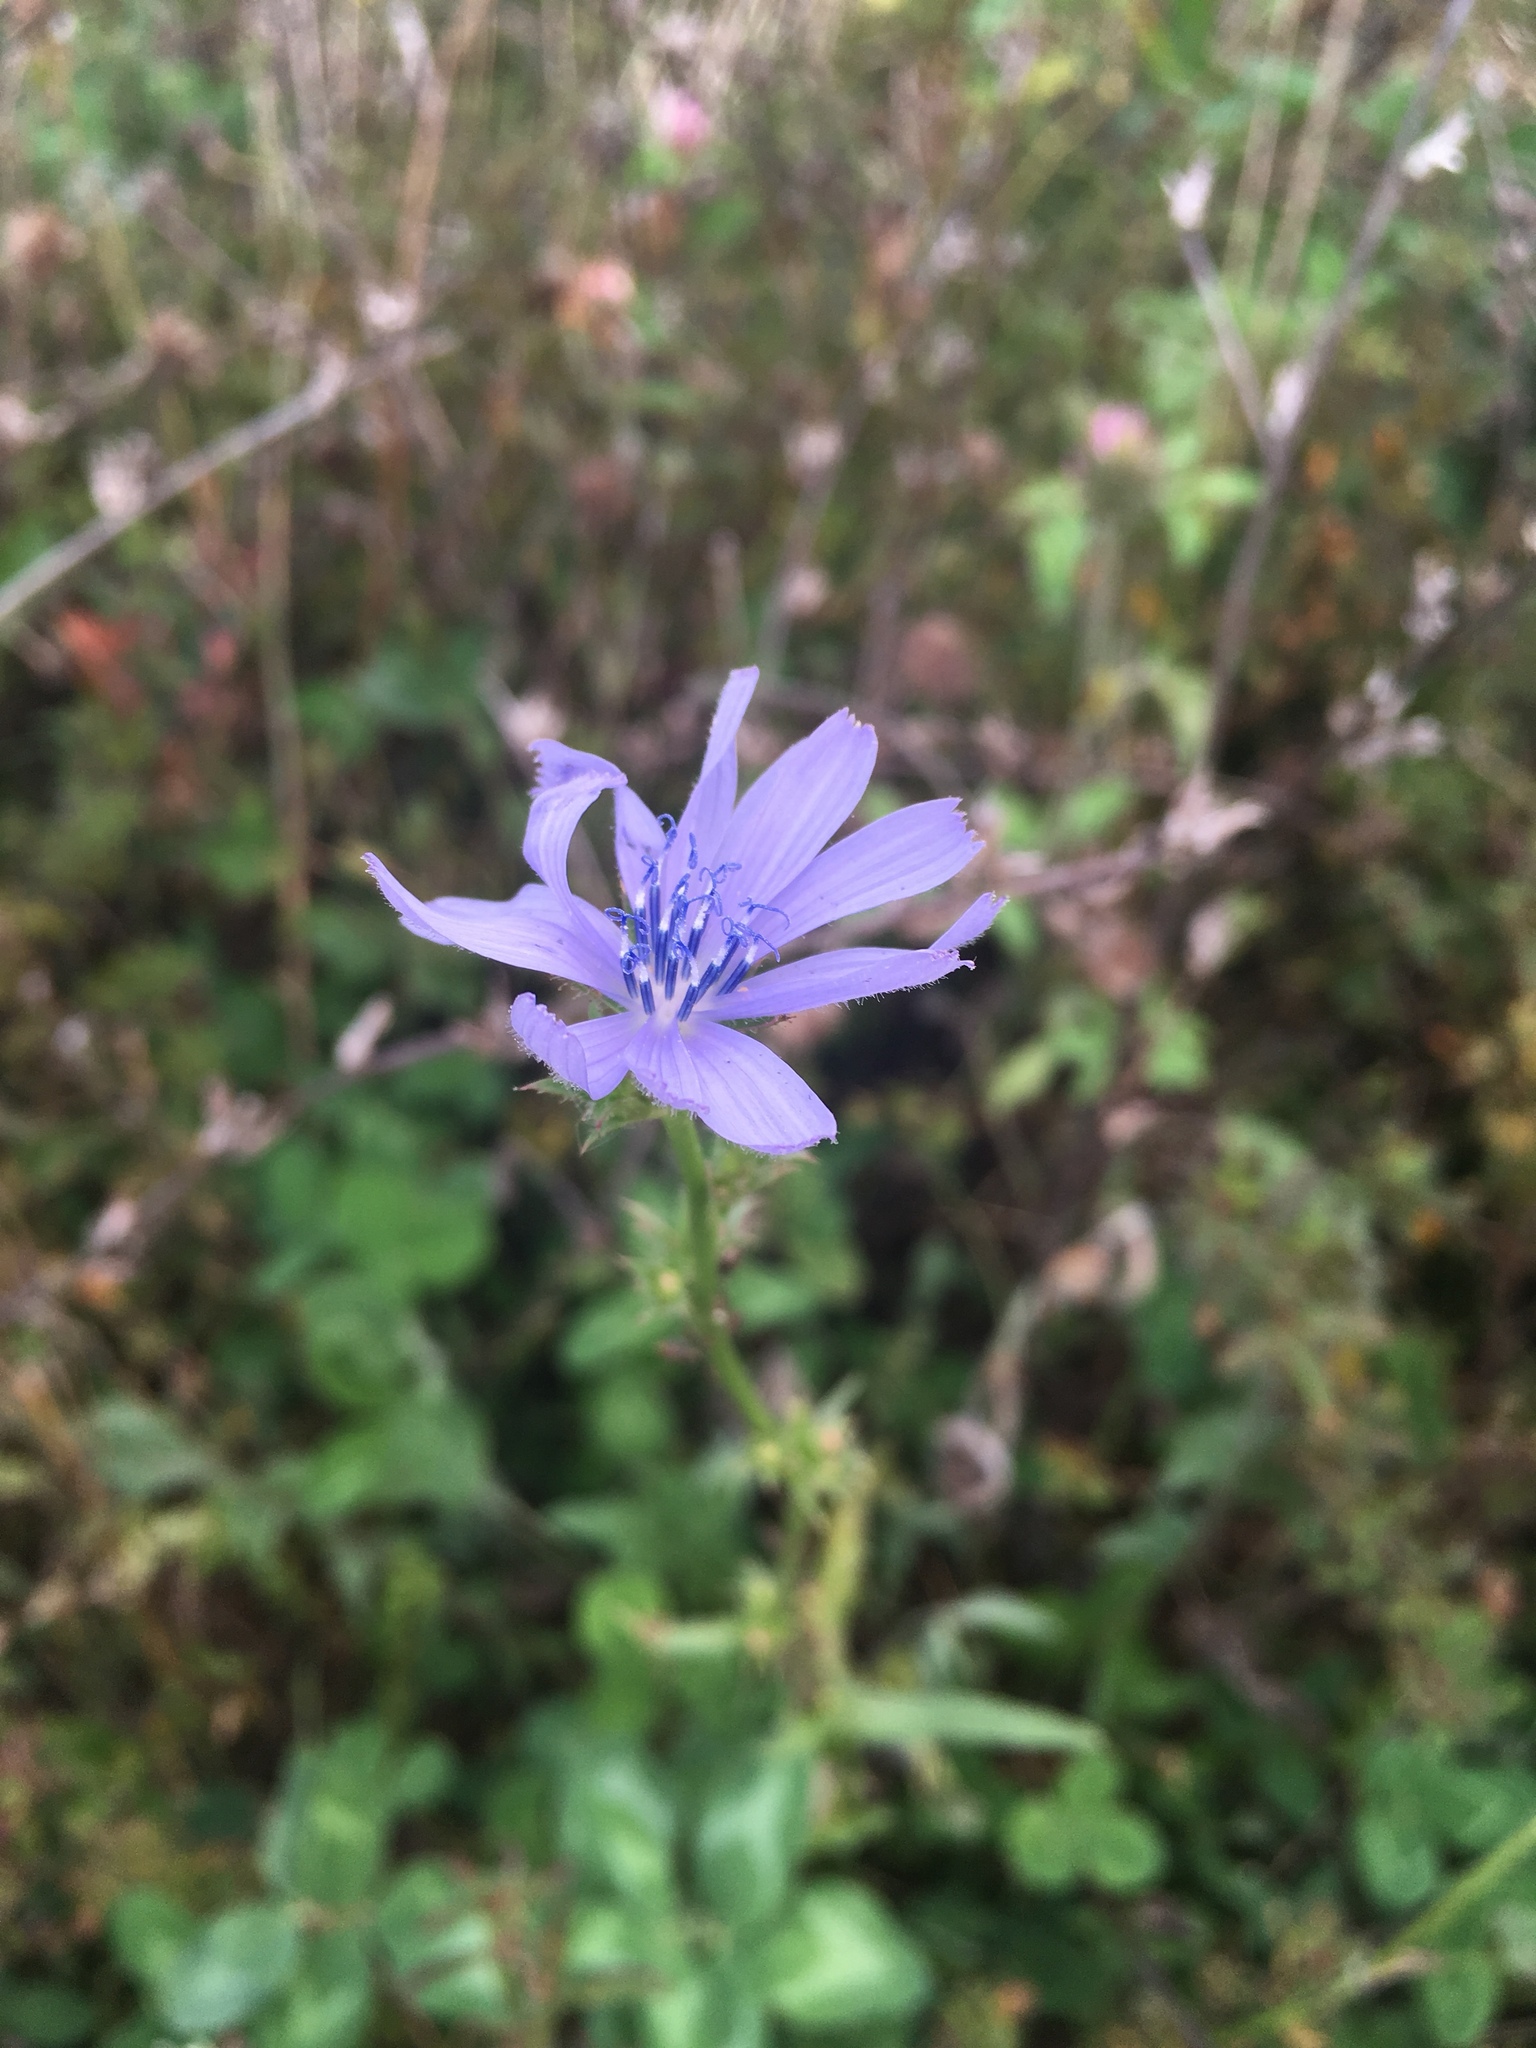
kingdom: Plantae
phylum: Tracheophyta
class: Magnoliopsida
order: Asterales
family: Asteraceae
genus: Cichorium
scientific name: Cichorium intybus
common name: Chicory
